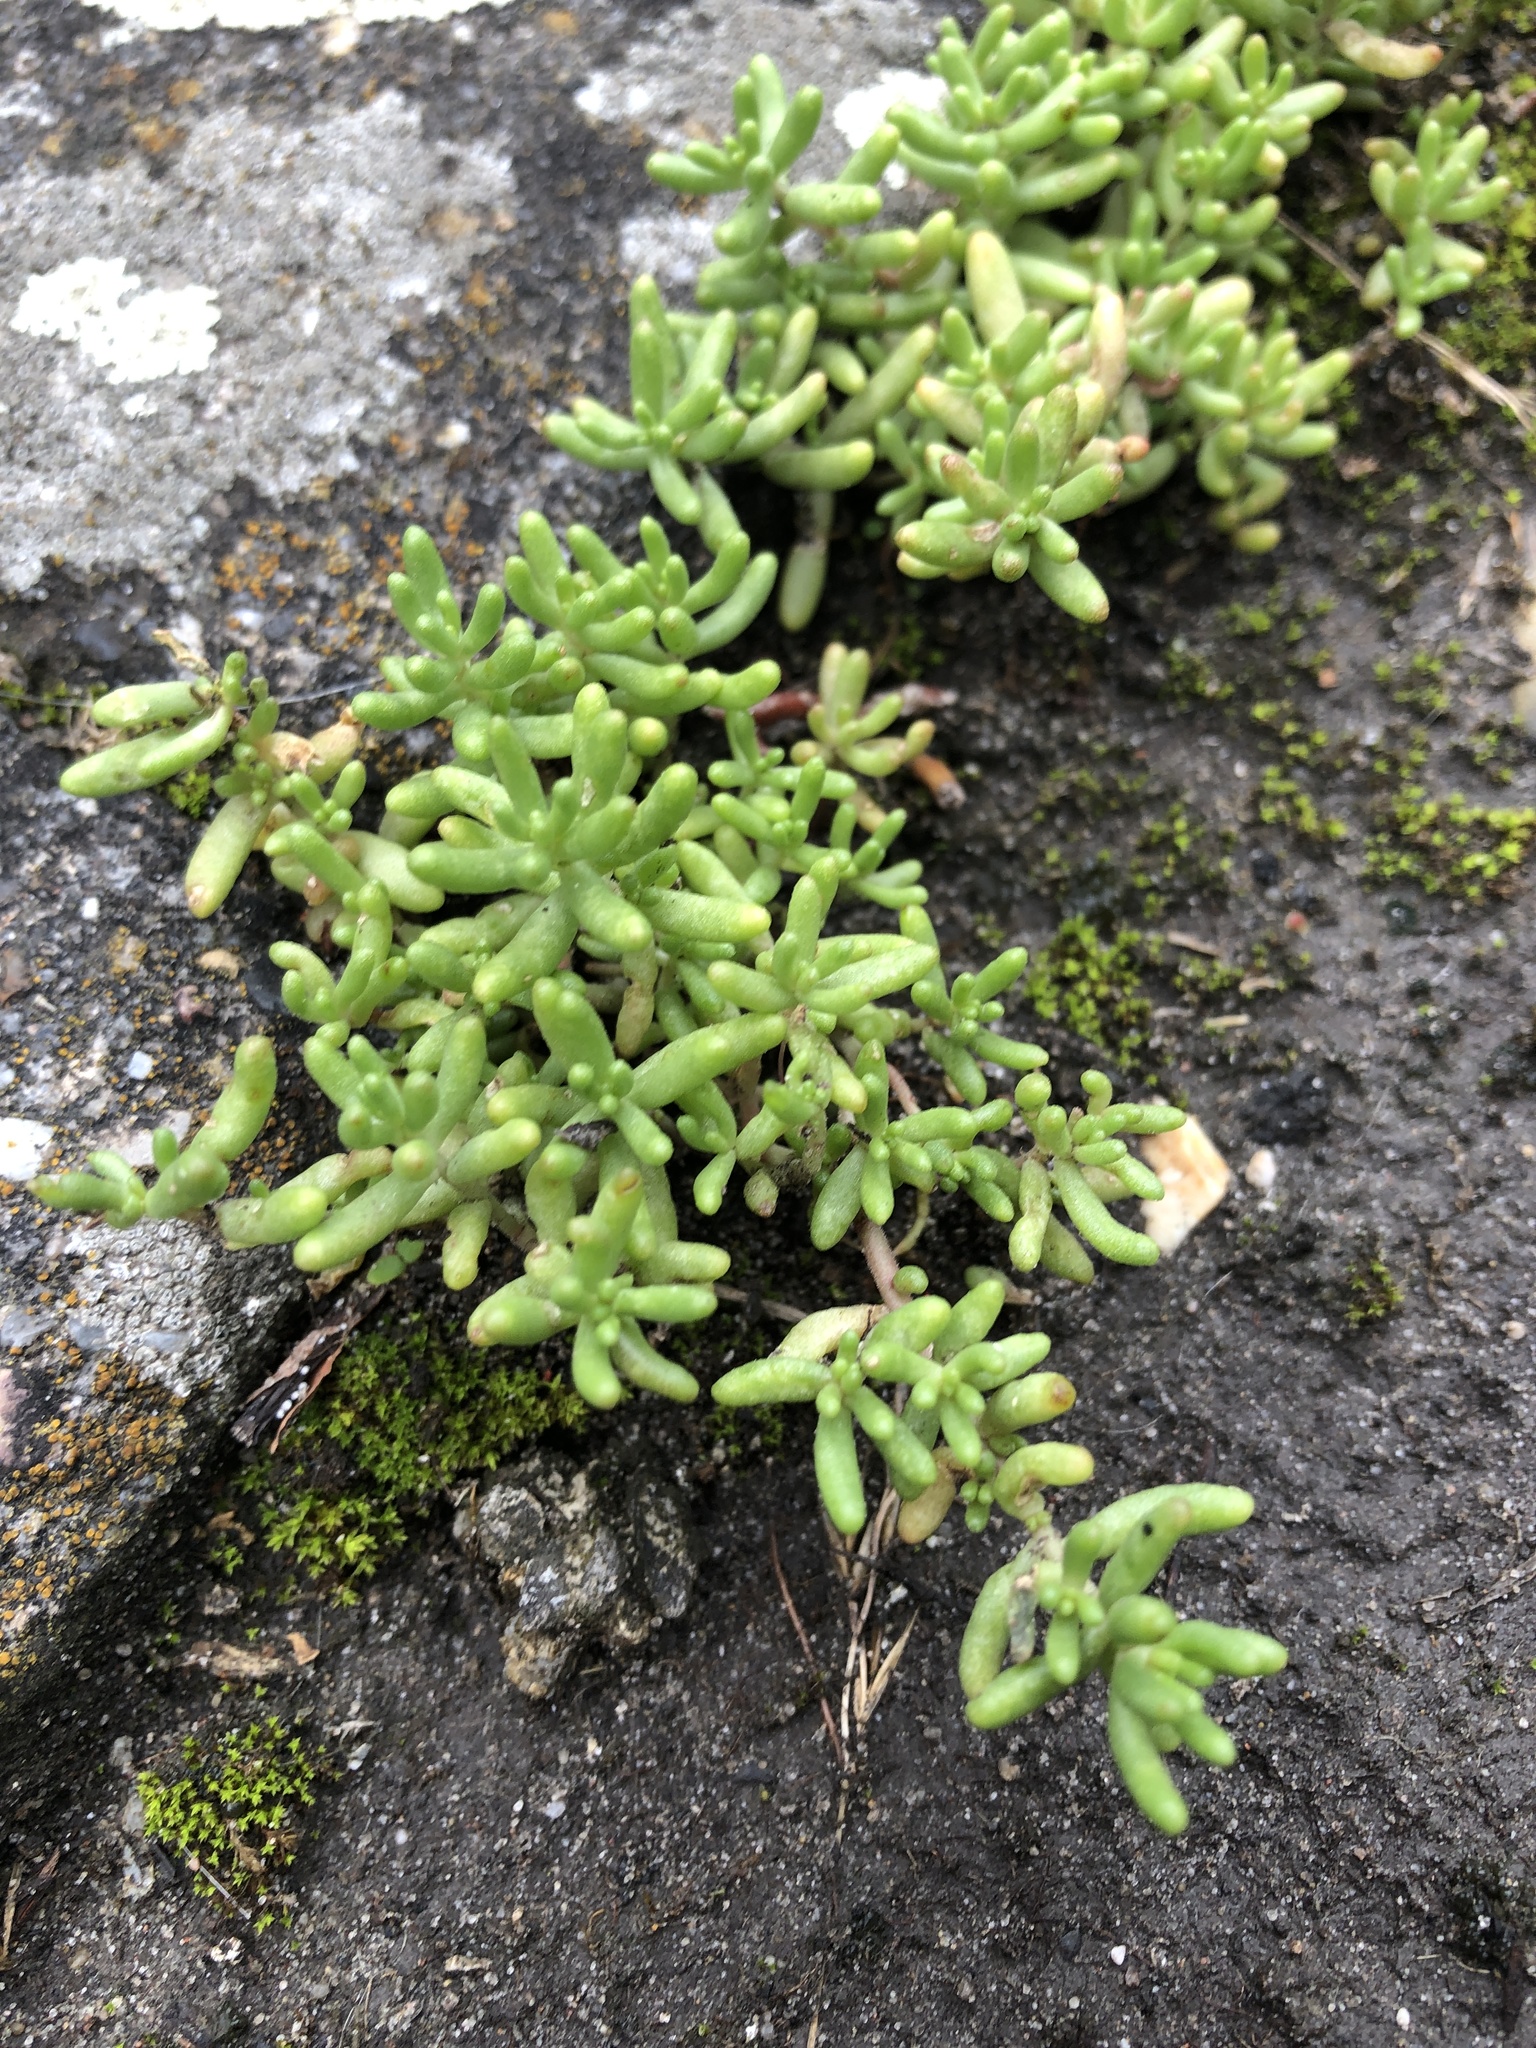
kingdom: Plantae
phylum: Tracheophyta
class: Magnoliopsida
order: Saxifragales
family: Crassulaceae
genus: Sedum
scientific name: Sedum album
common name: White stonecrop
